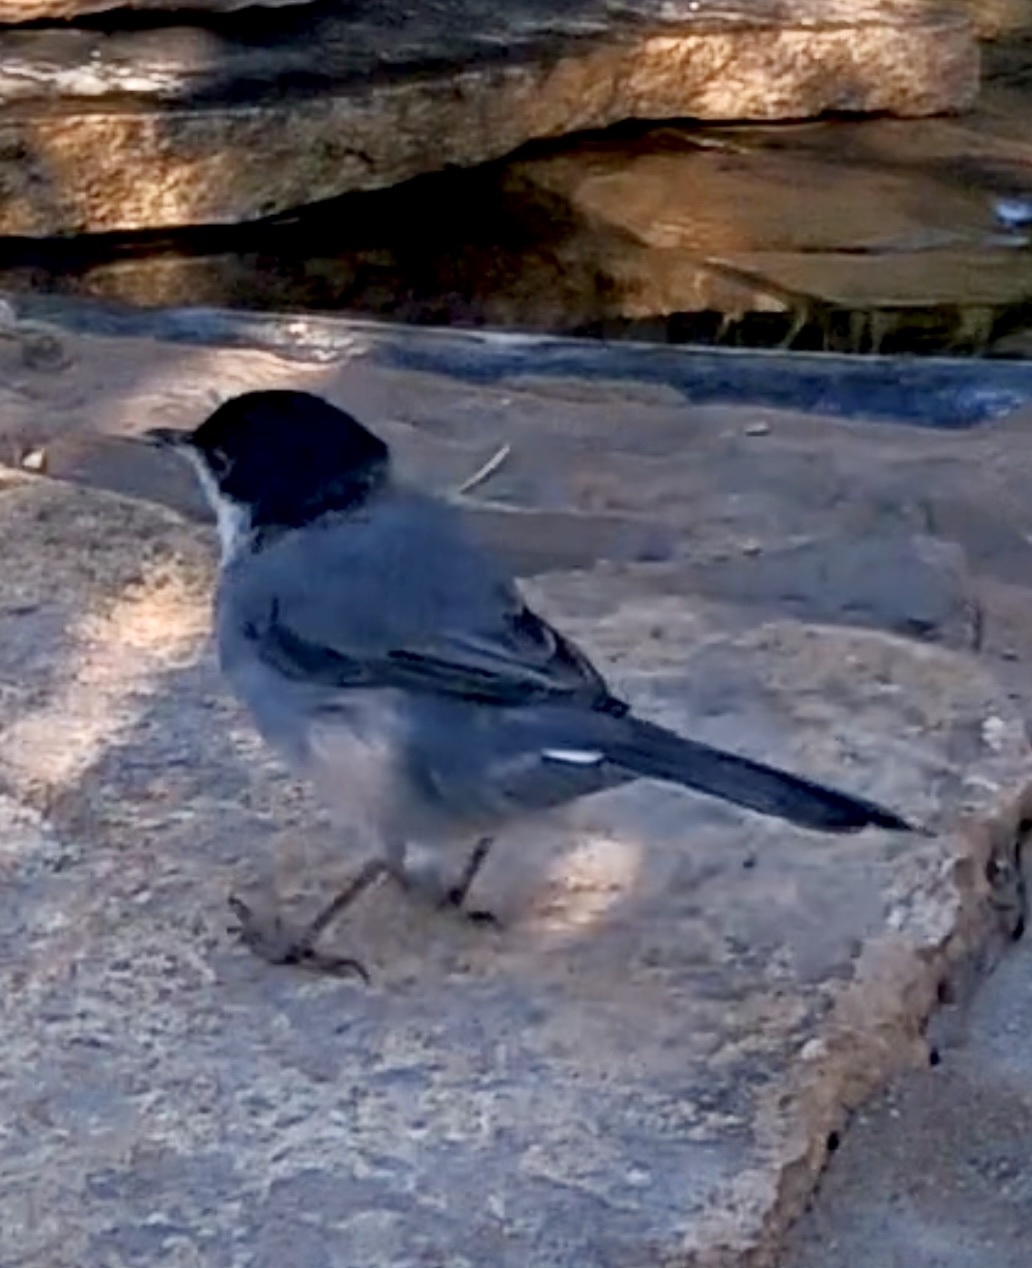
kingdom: Animalia
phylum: Chordata
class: Aves
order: Passeriformes
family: Sylviidae
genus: Curruca
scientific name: Curruca melanocephala
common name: Sardinian warbler
